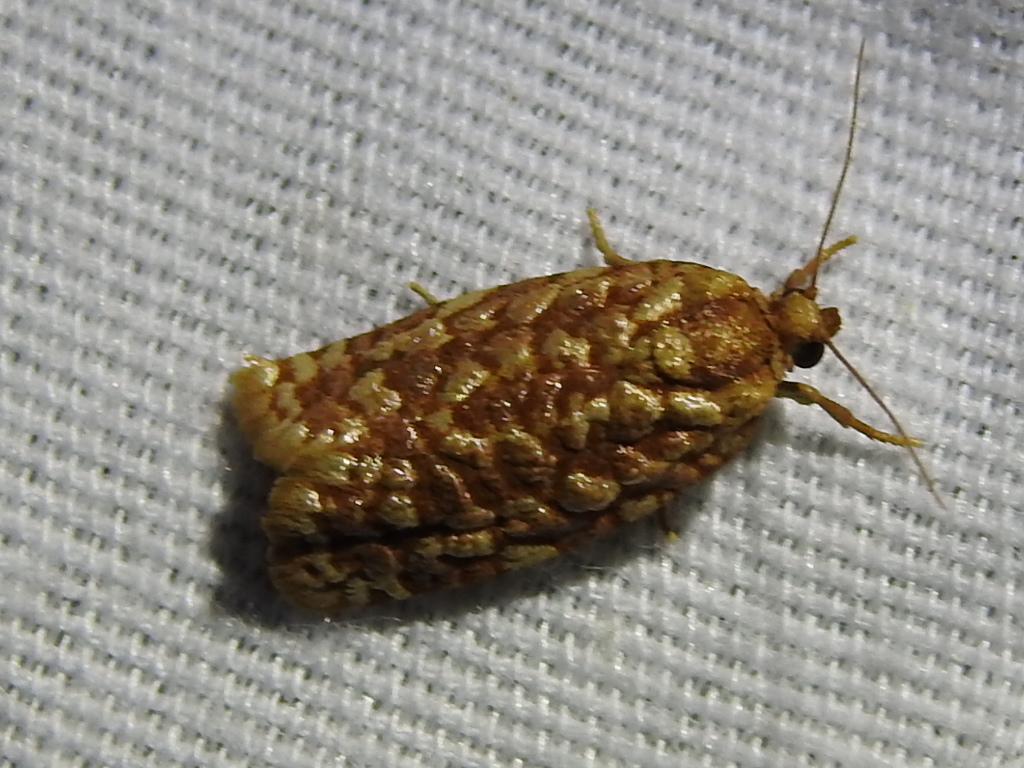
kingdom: Animalia
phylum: Arthropoda
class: Insecta
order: Lepidoptera
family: Tortricidae
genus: Choristoneura
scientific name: Choristoneura houstonana
